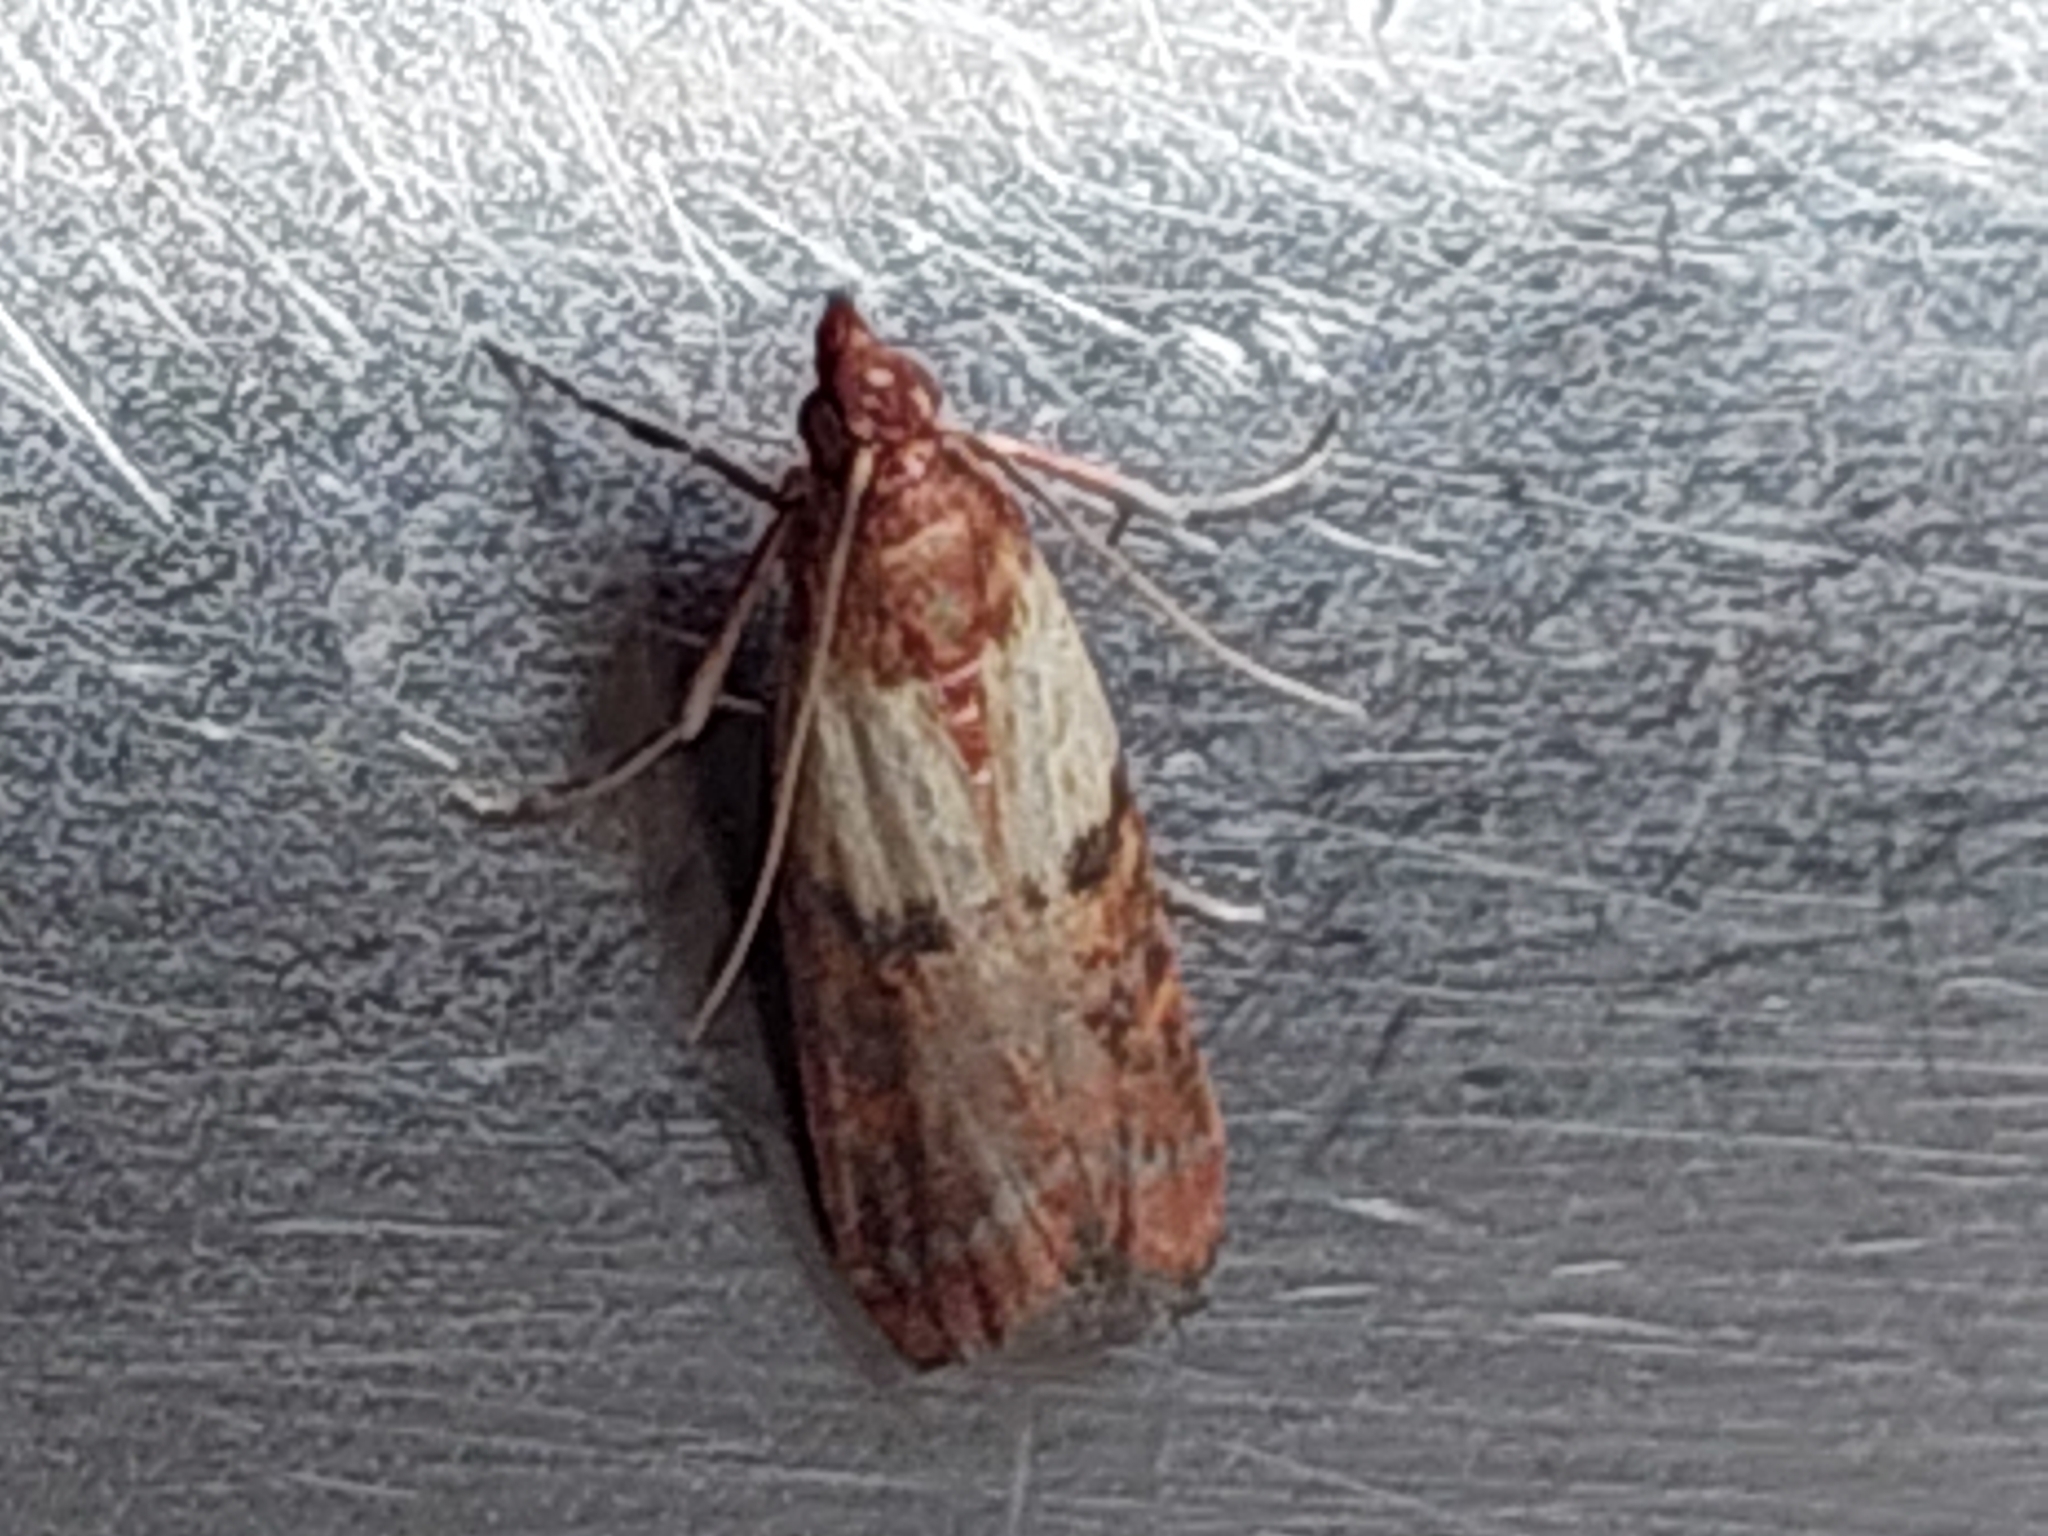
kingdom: Animalia
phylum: Arthropoda
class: Insecta
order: Lepidoptera
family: Pyralidae
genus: Plodia
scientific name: Plodia interpunctella
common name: Indian meal moth
